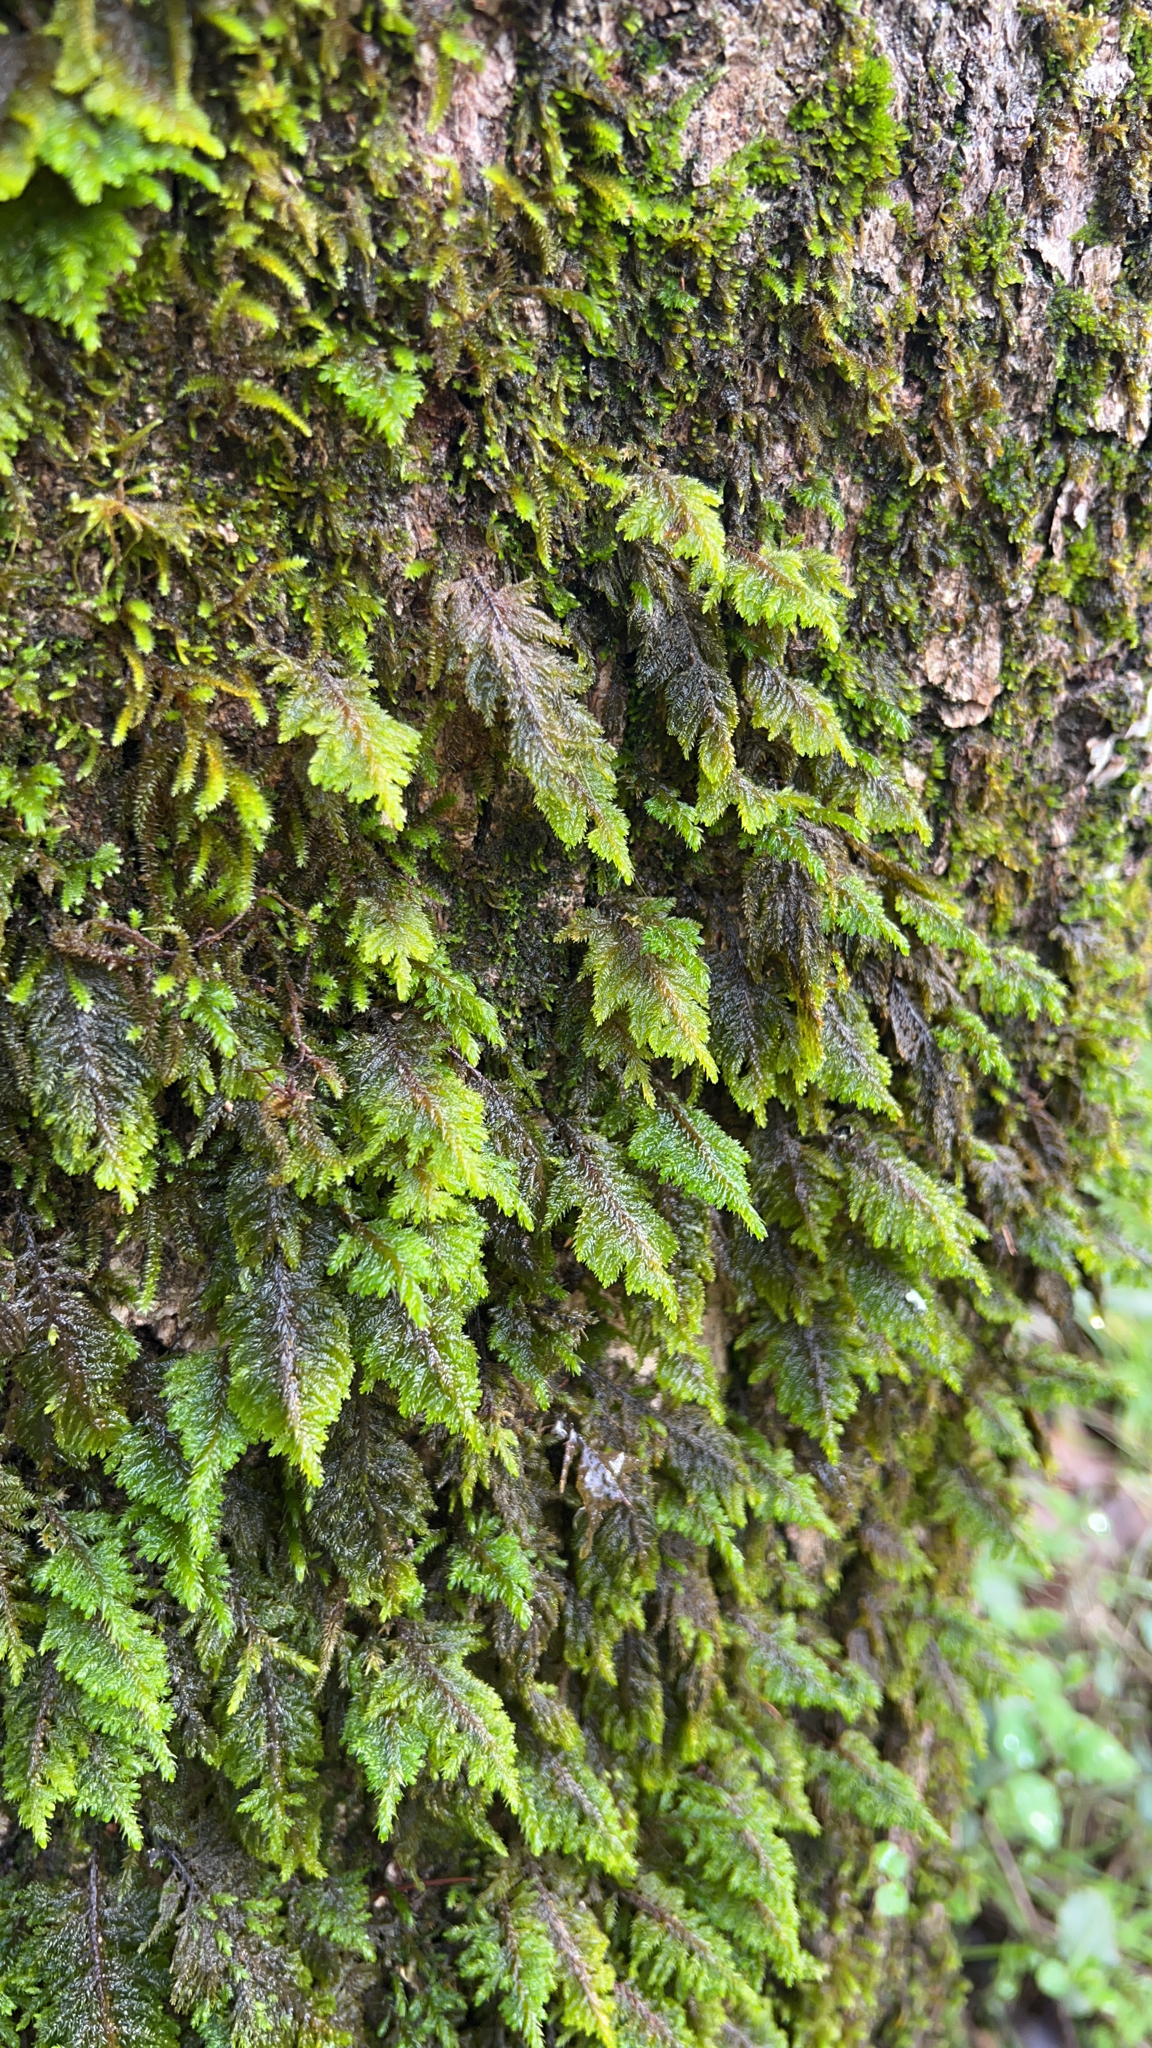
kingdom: Plantae
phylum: Bryophyta
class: Bryopsida
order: Hypnales
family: Cryphaeaceae
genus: Dendroalsia
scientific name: Dendroalsia abietina
